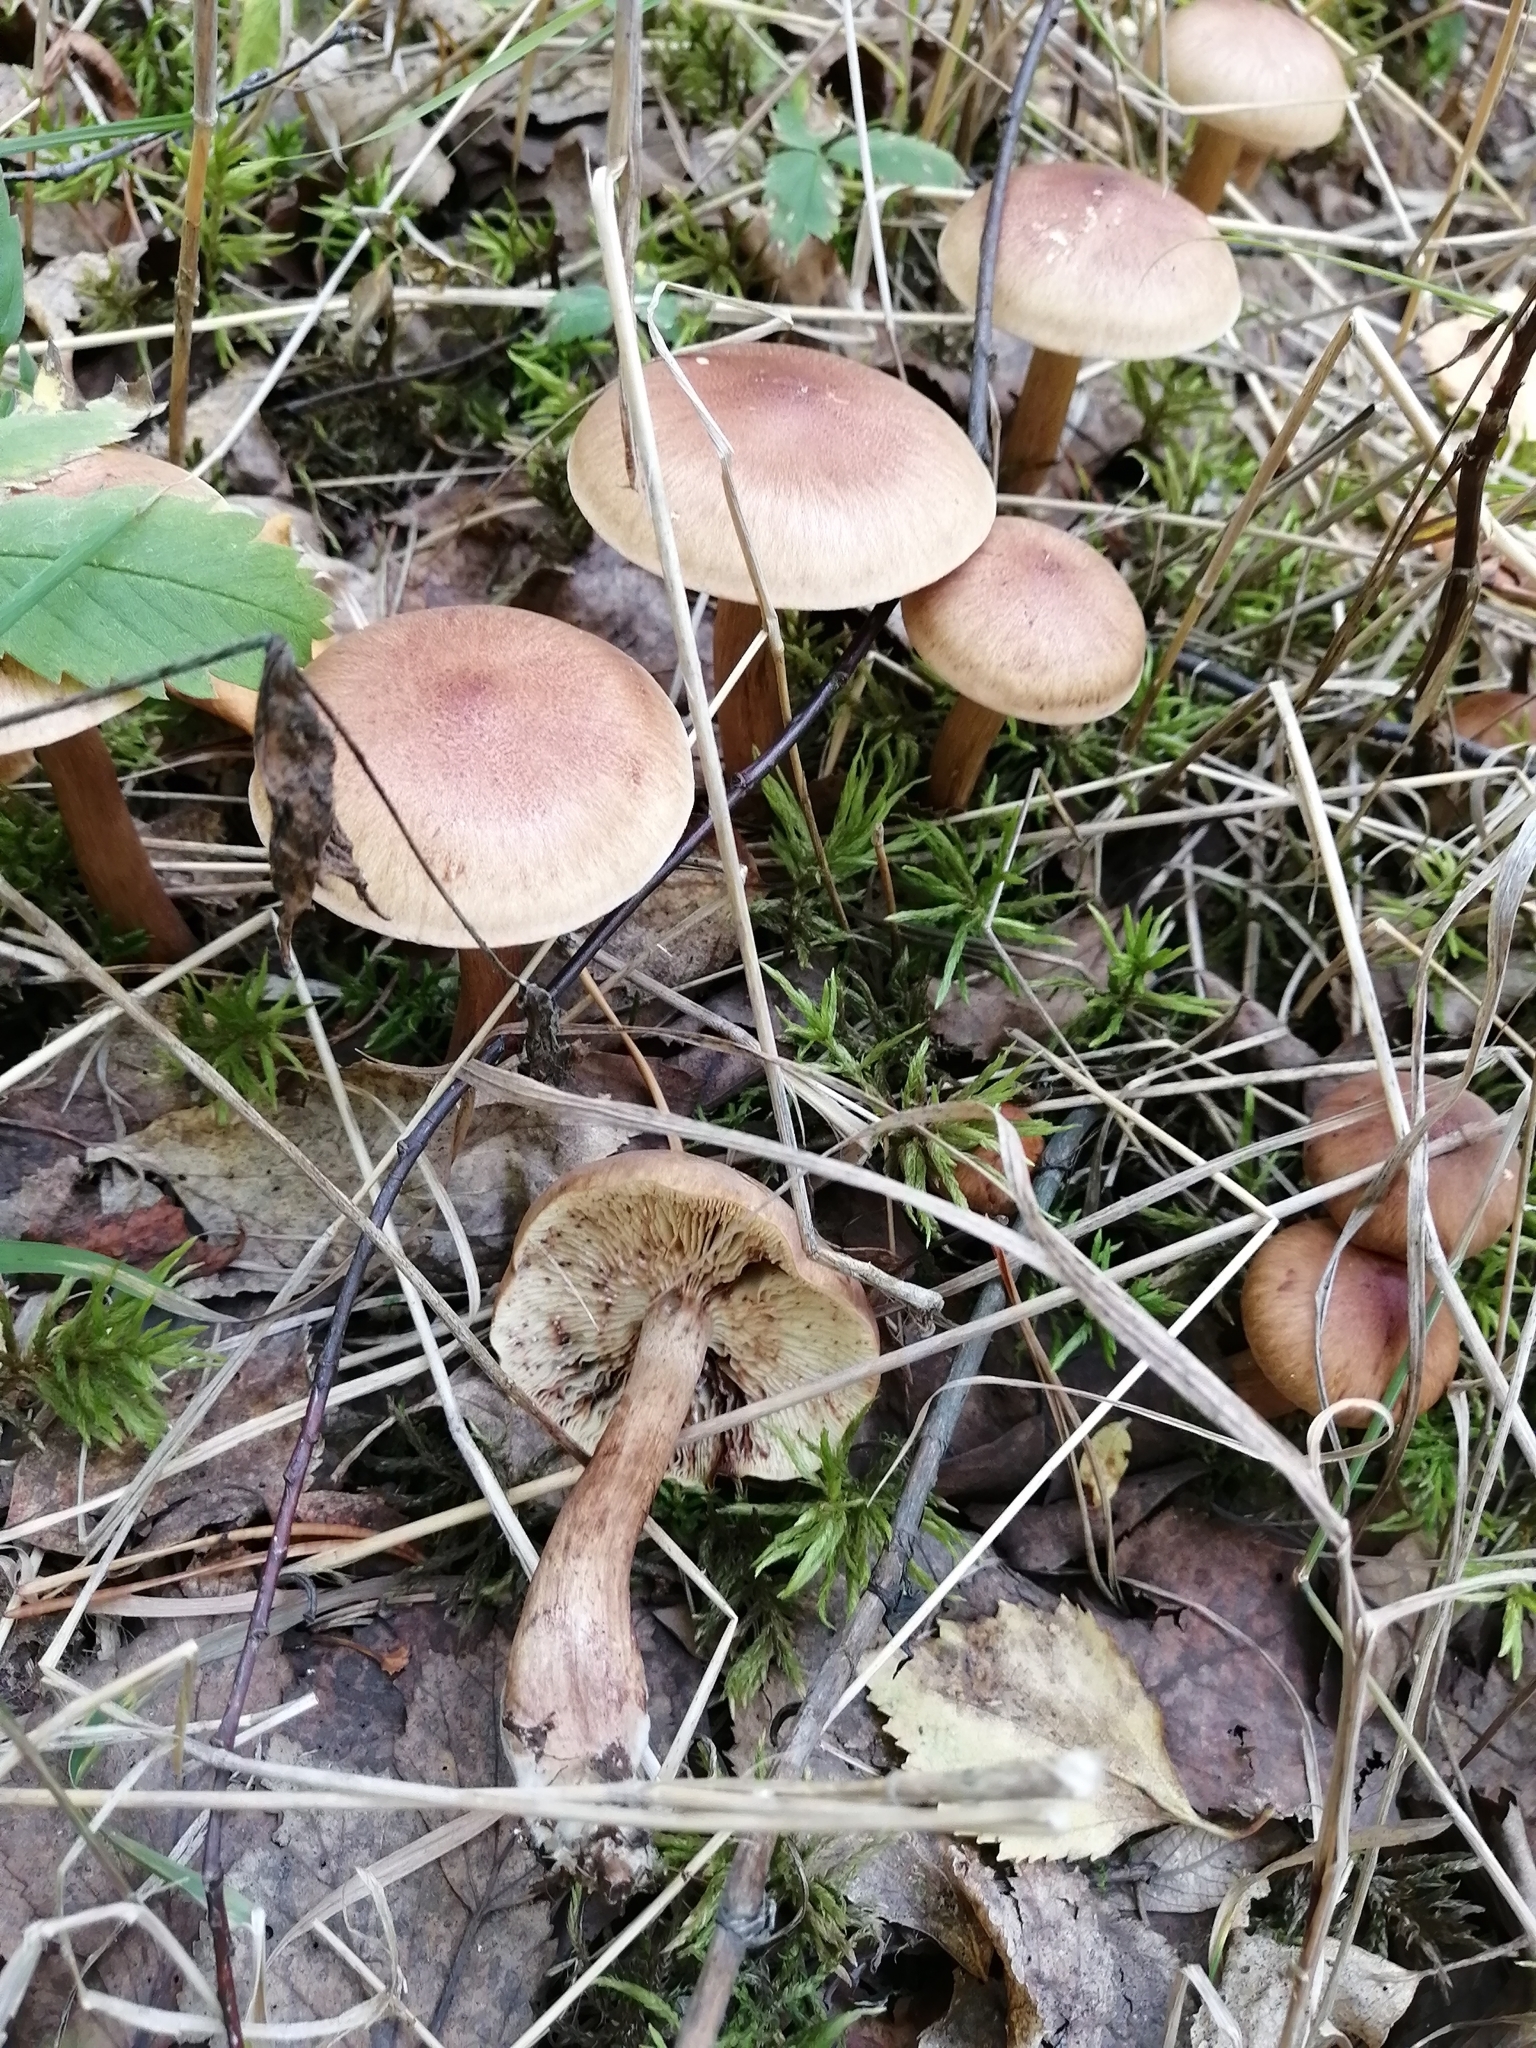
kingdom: Fungi
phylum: Basidiomycota
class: Agaricomycetes
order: Agaricales
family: Tricholomataceae
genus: Tricholoma
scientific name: Tricholoma fulvum
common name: Birch knight
